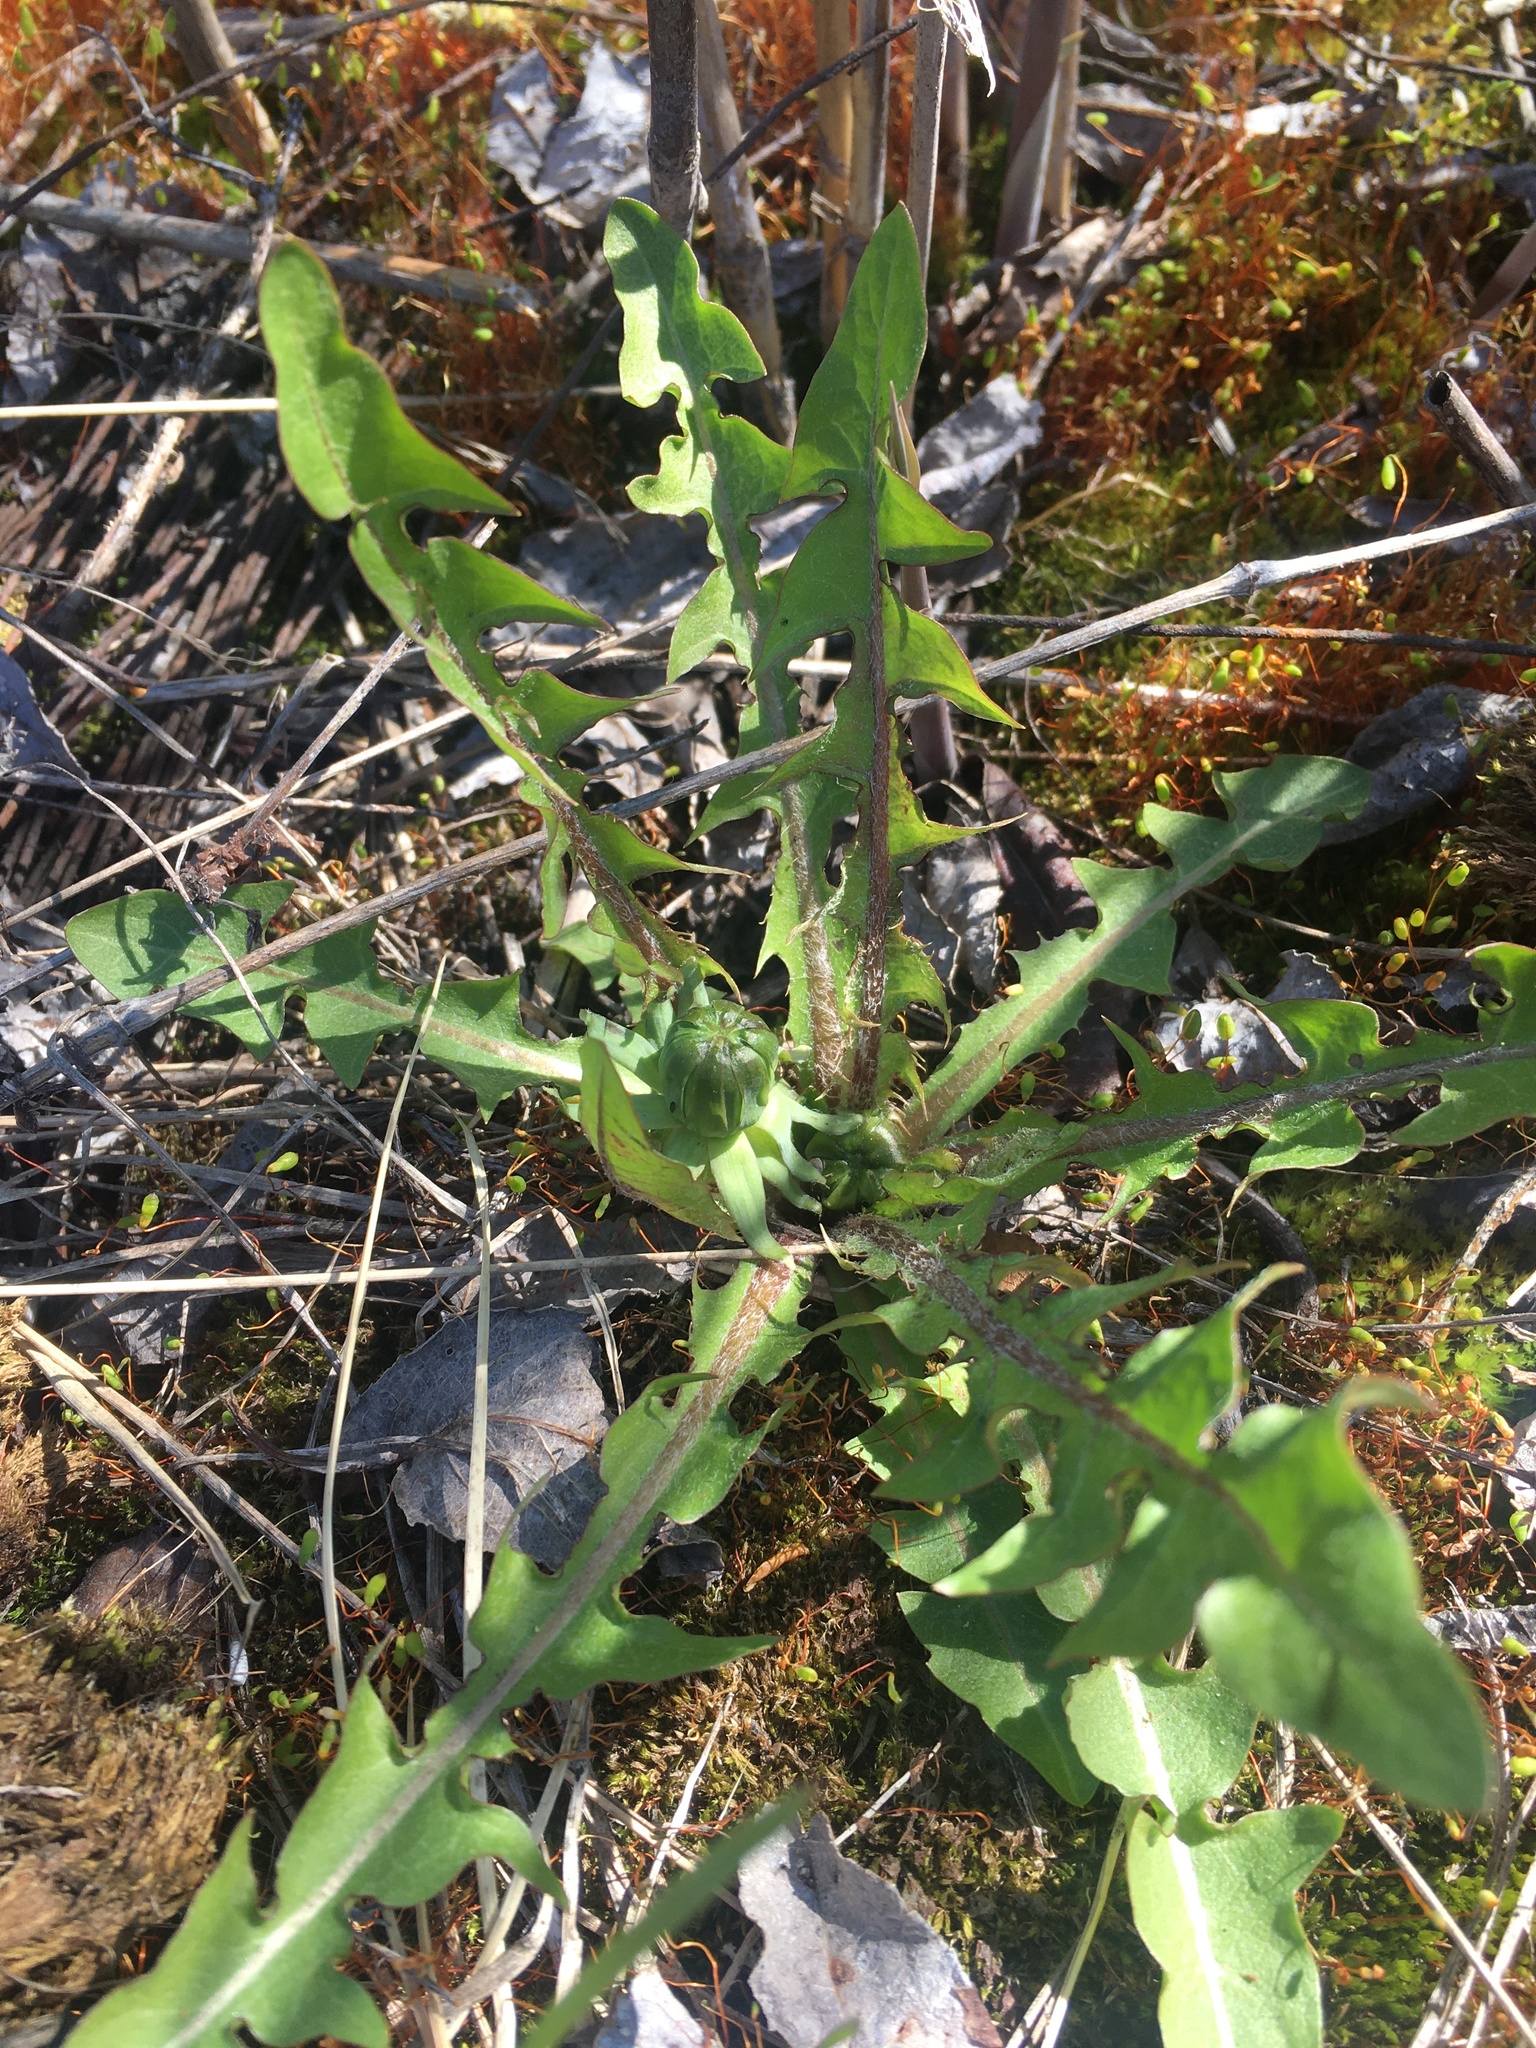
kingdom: Plantae
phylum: Tracheophyta
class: Magnoliopsida
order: Asterales
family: Asteraceae
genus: Taraxacum
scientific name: Taraxacum officinale
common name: Common dandelion
